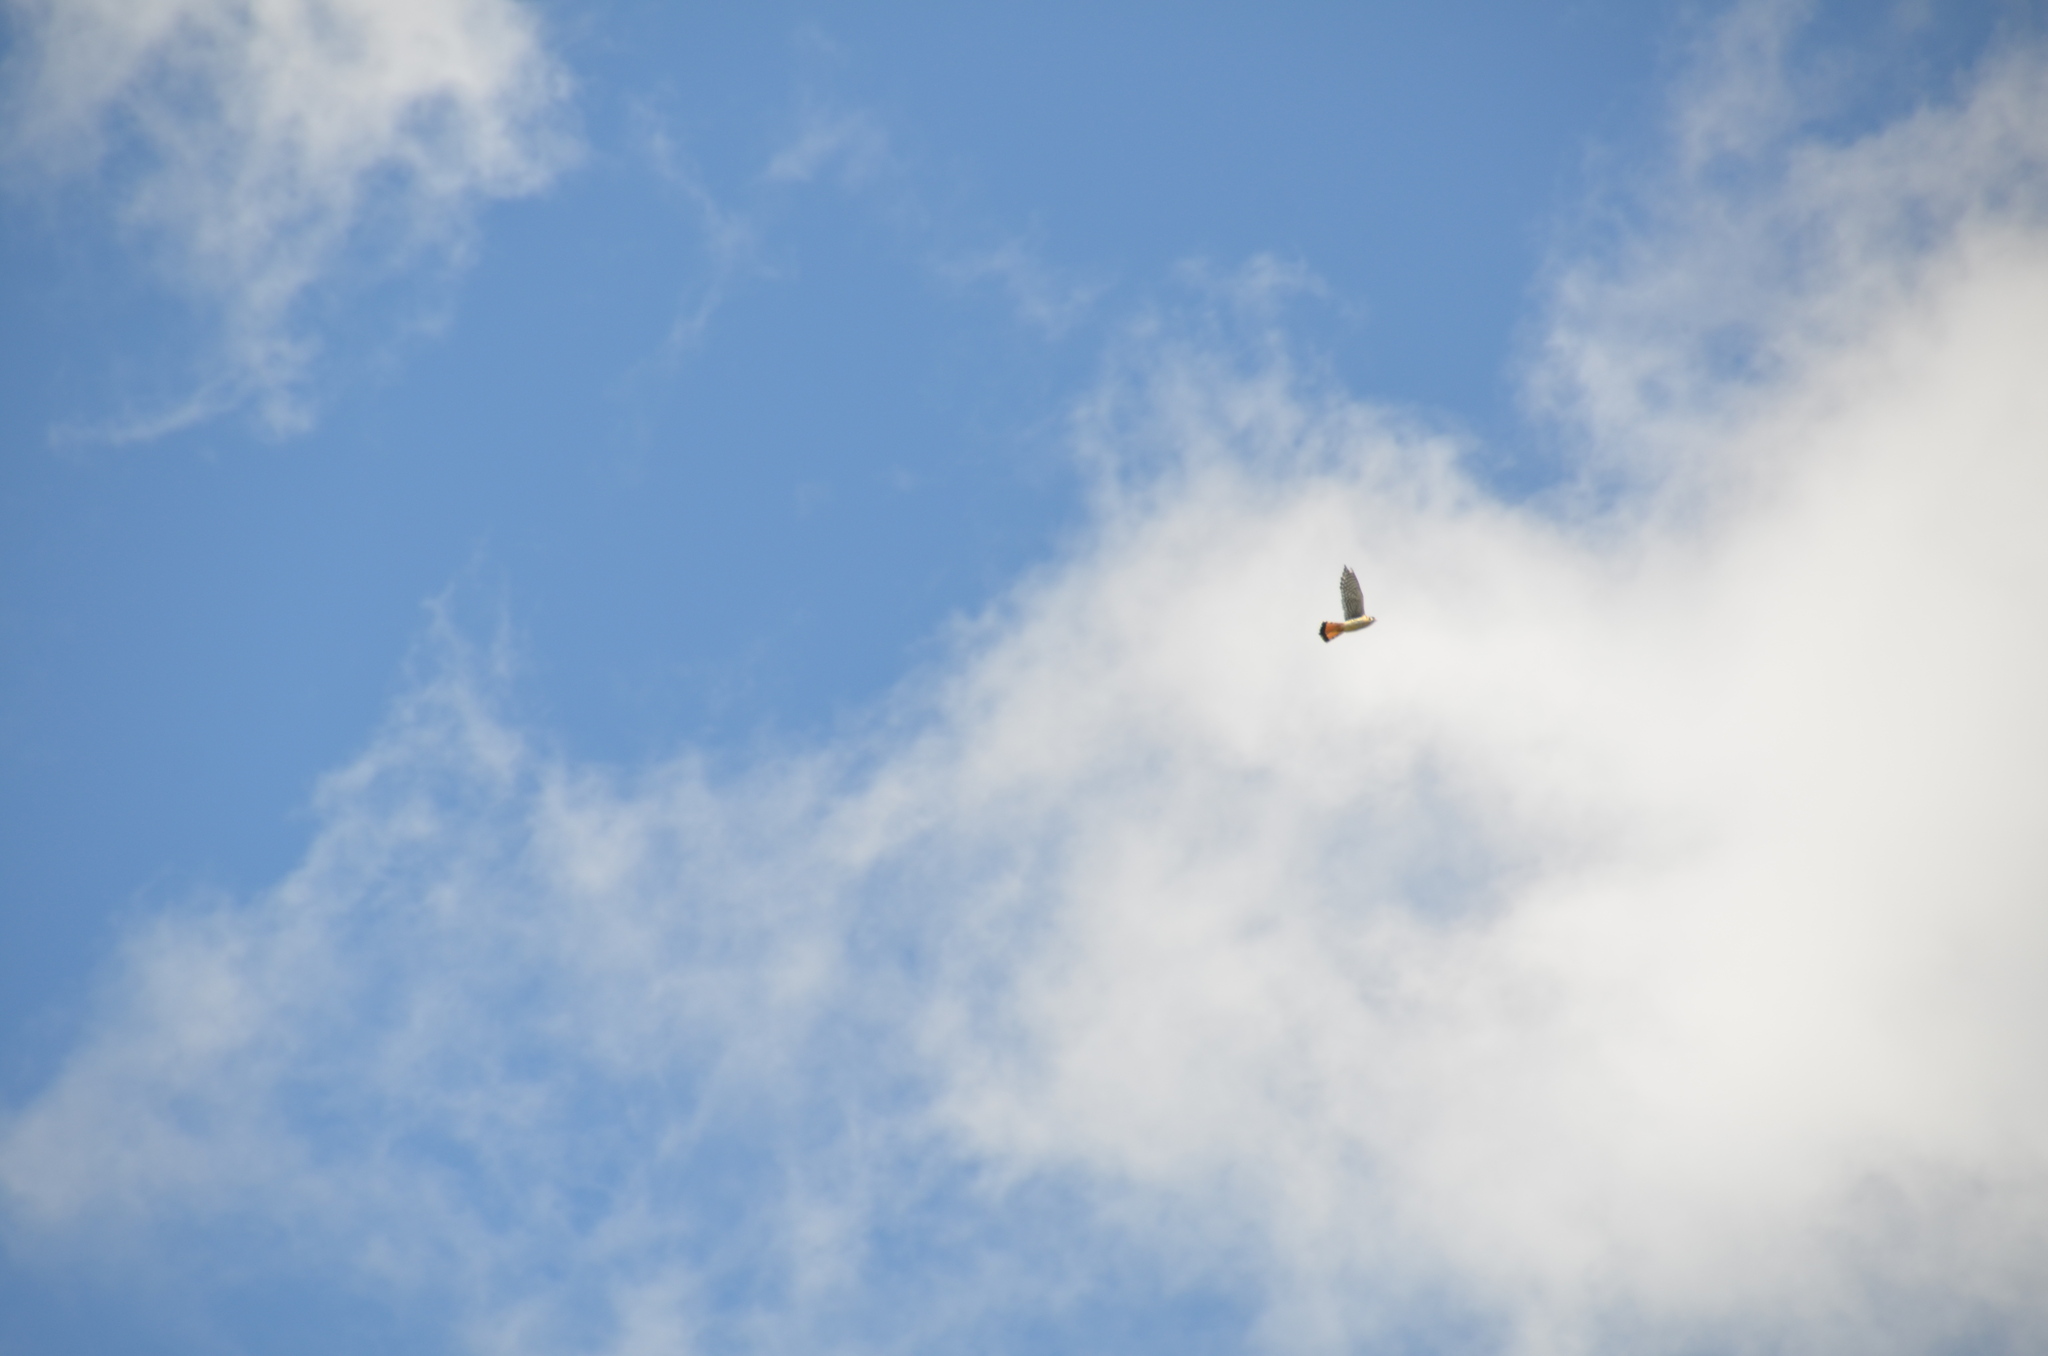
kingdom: Animalia
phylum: Chordata
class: Aves
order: Falconiformes
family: Falconidae
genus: Falco
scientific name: Falco sparverius
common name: American kestrel
